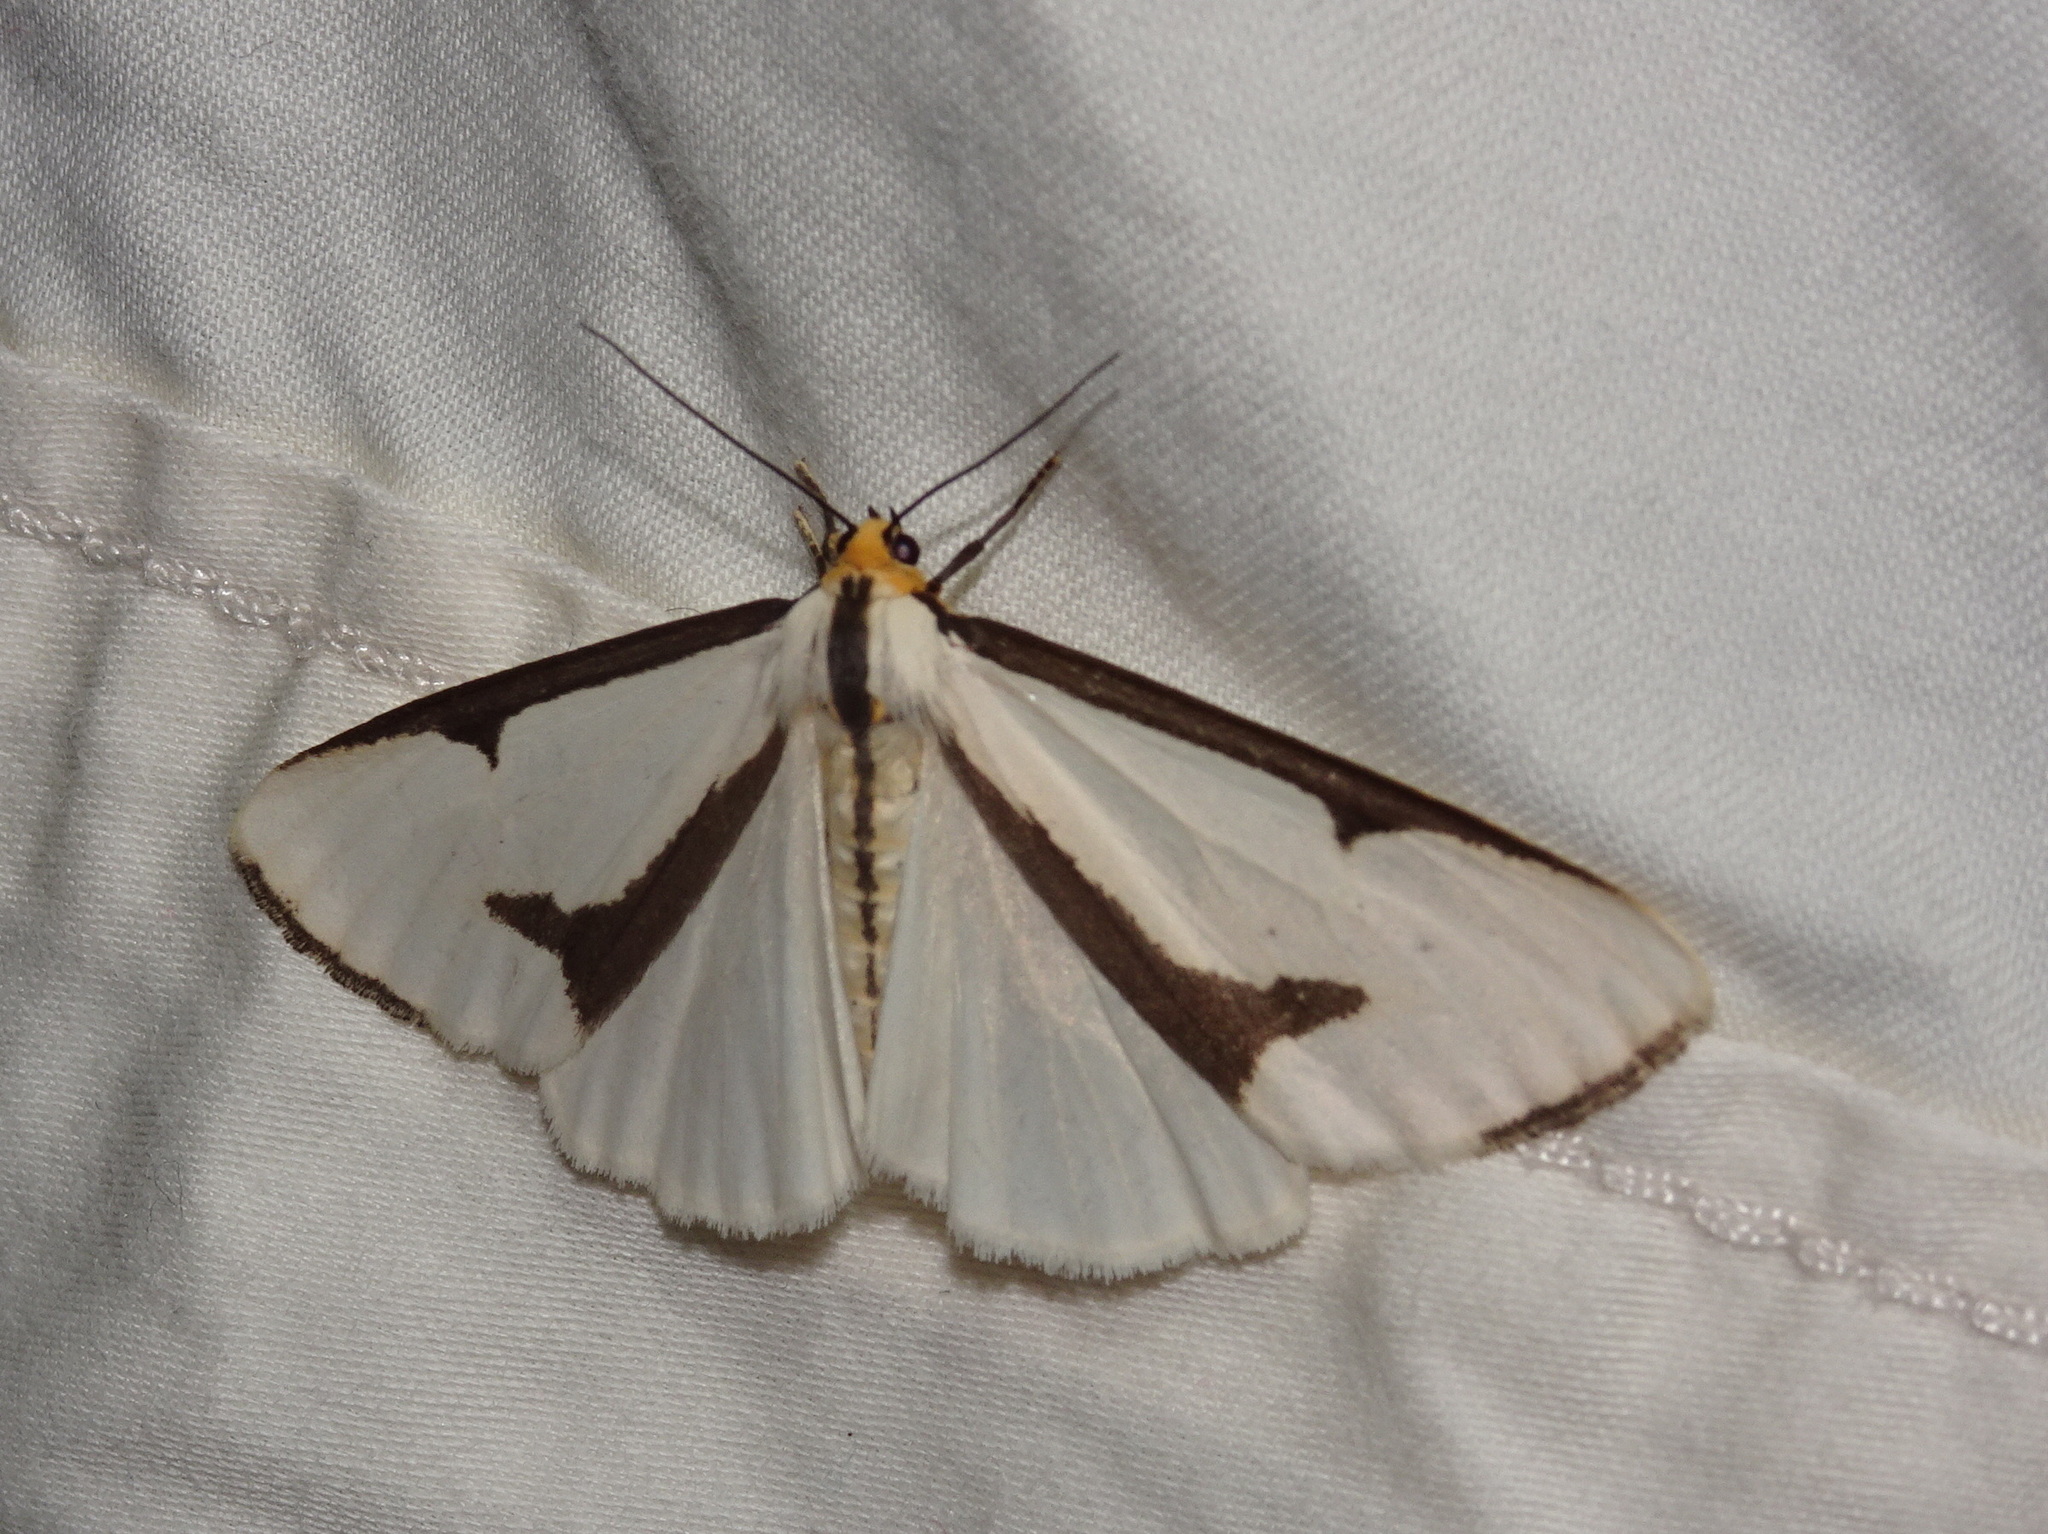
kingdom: Animalia
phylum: Arthropoda
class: Insecta
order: Lepidoptera
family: Erebidae
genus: Haploa
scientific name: Haploa lecontei
